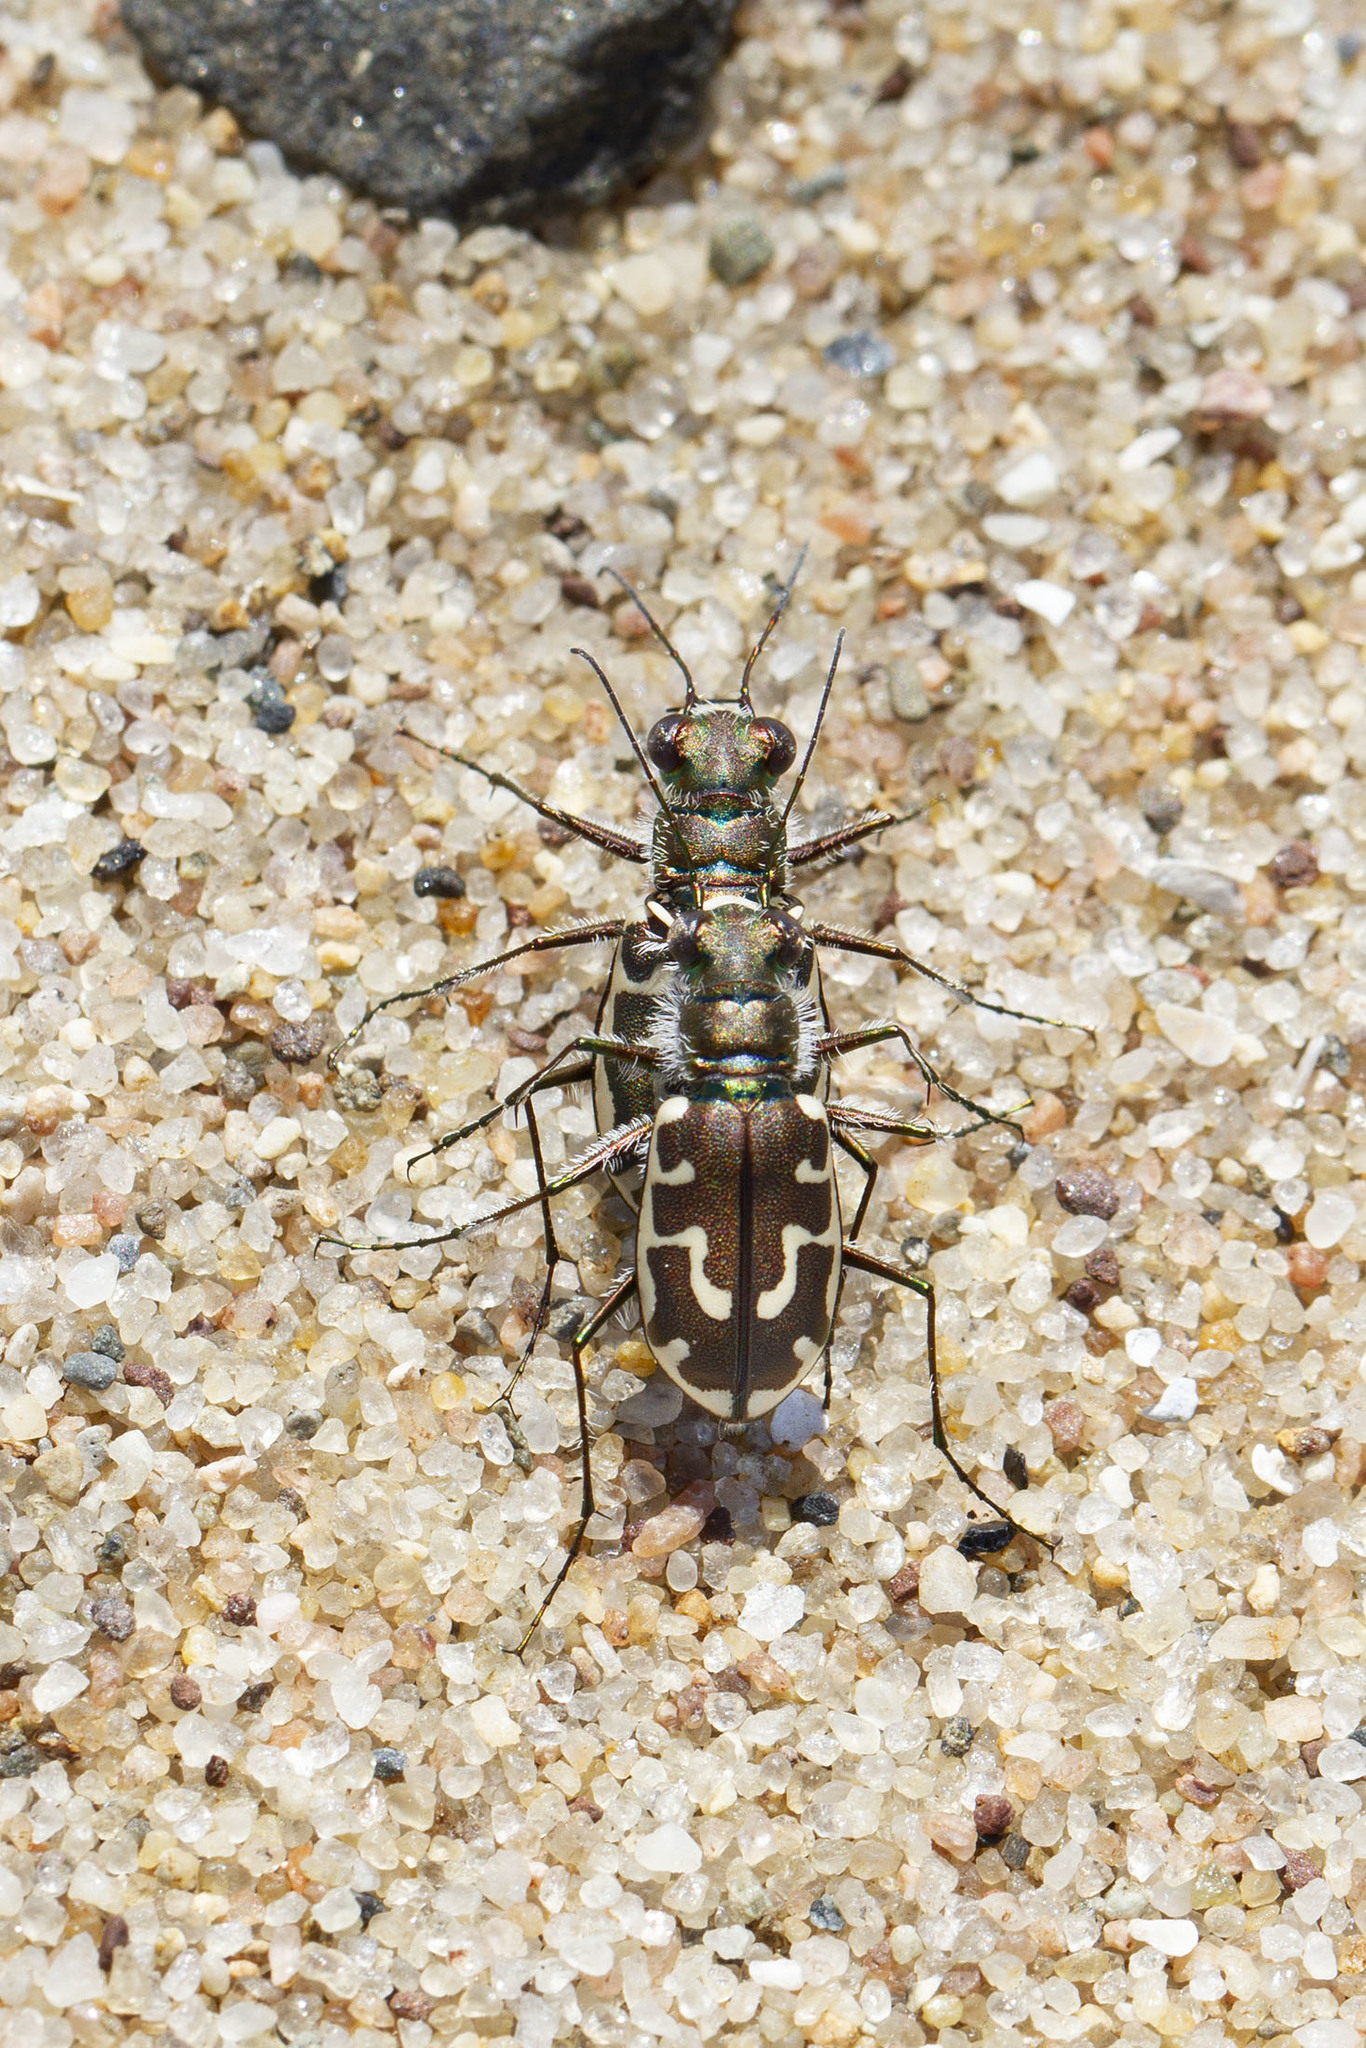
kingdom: Animalia
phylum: Arthropoda
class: Insecta
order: Coleoptera
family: Carabidae
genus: Cicindela
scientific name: Cicindela hirticollis
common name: Hairy-necked tiger beetle
